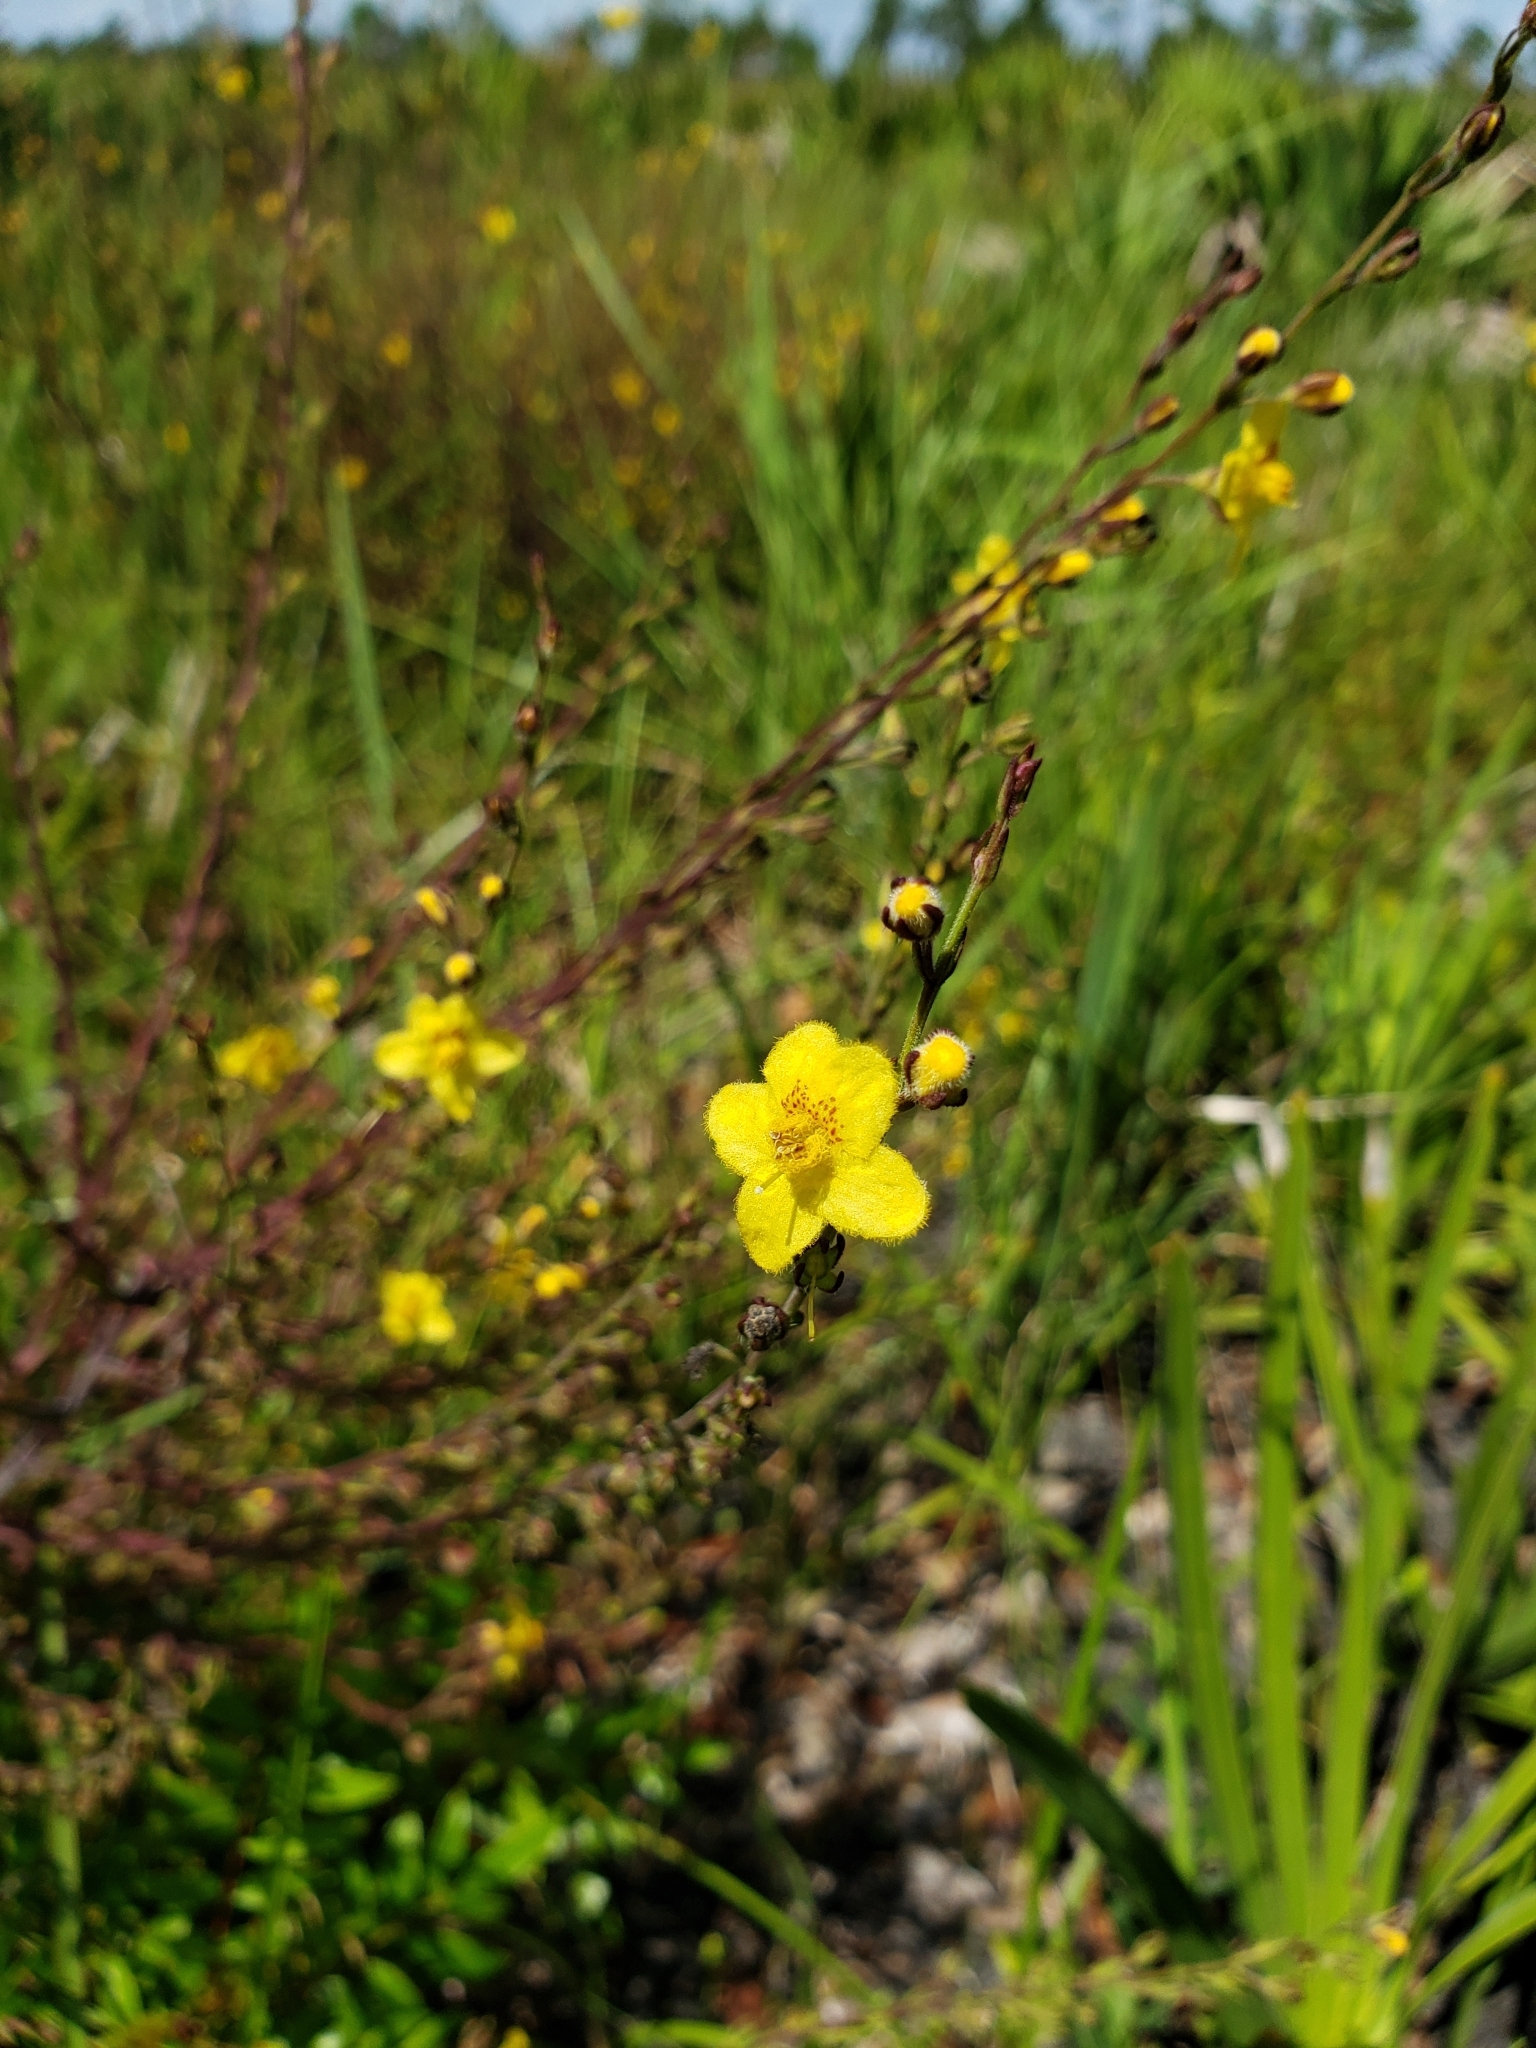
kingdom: Plantae
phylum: Tracheophyta
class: Magnoliopsida
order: Lamiales
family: Orobanchaceae
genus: Seymeria
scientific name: Seymeria pectinata
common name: Piedmont black-senna
